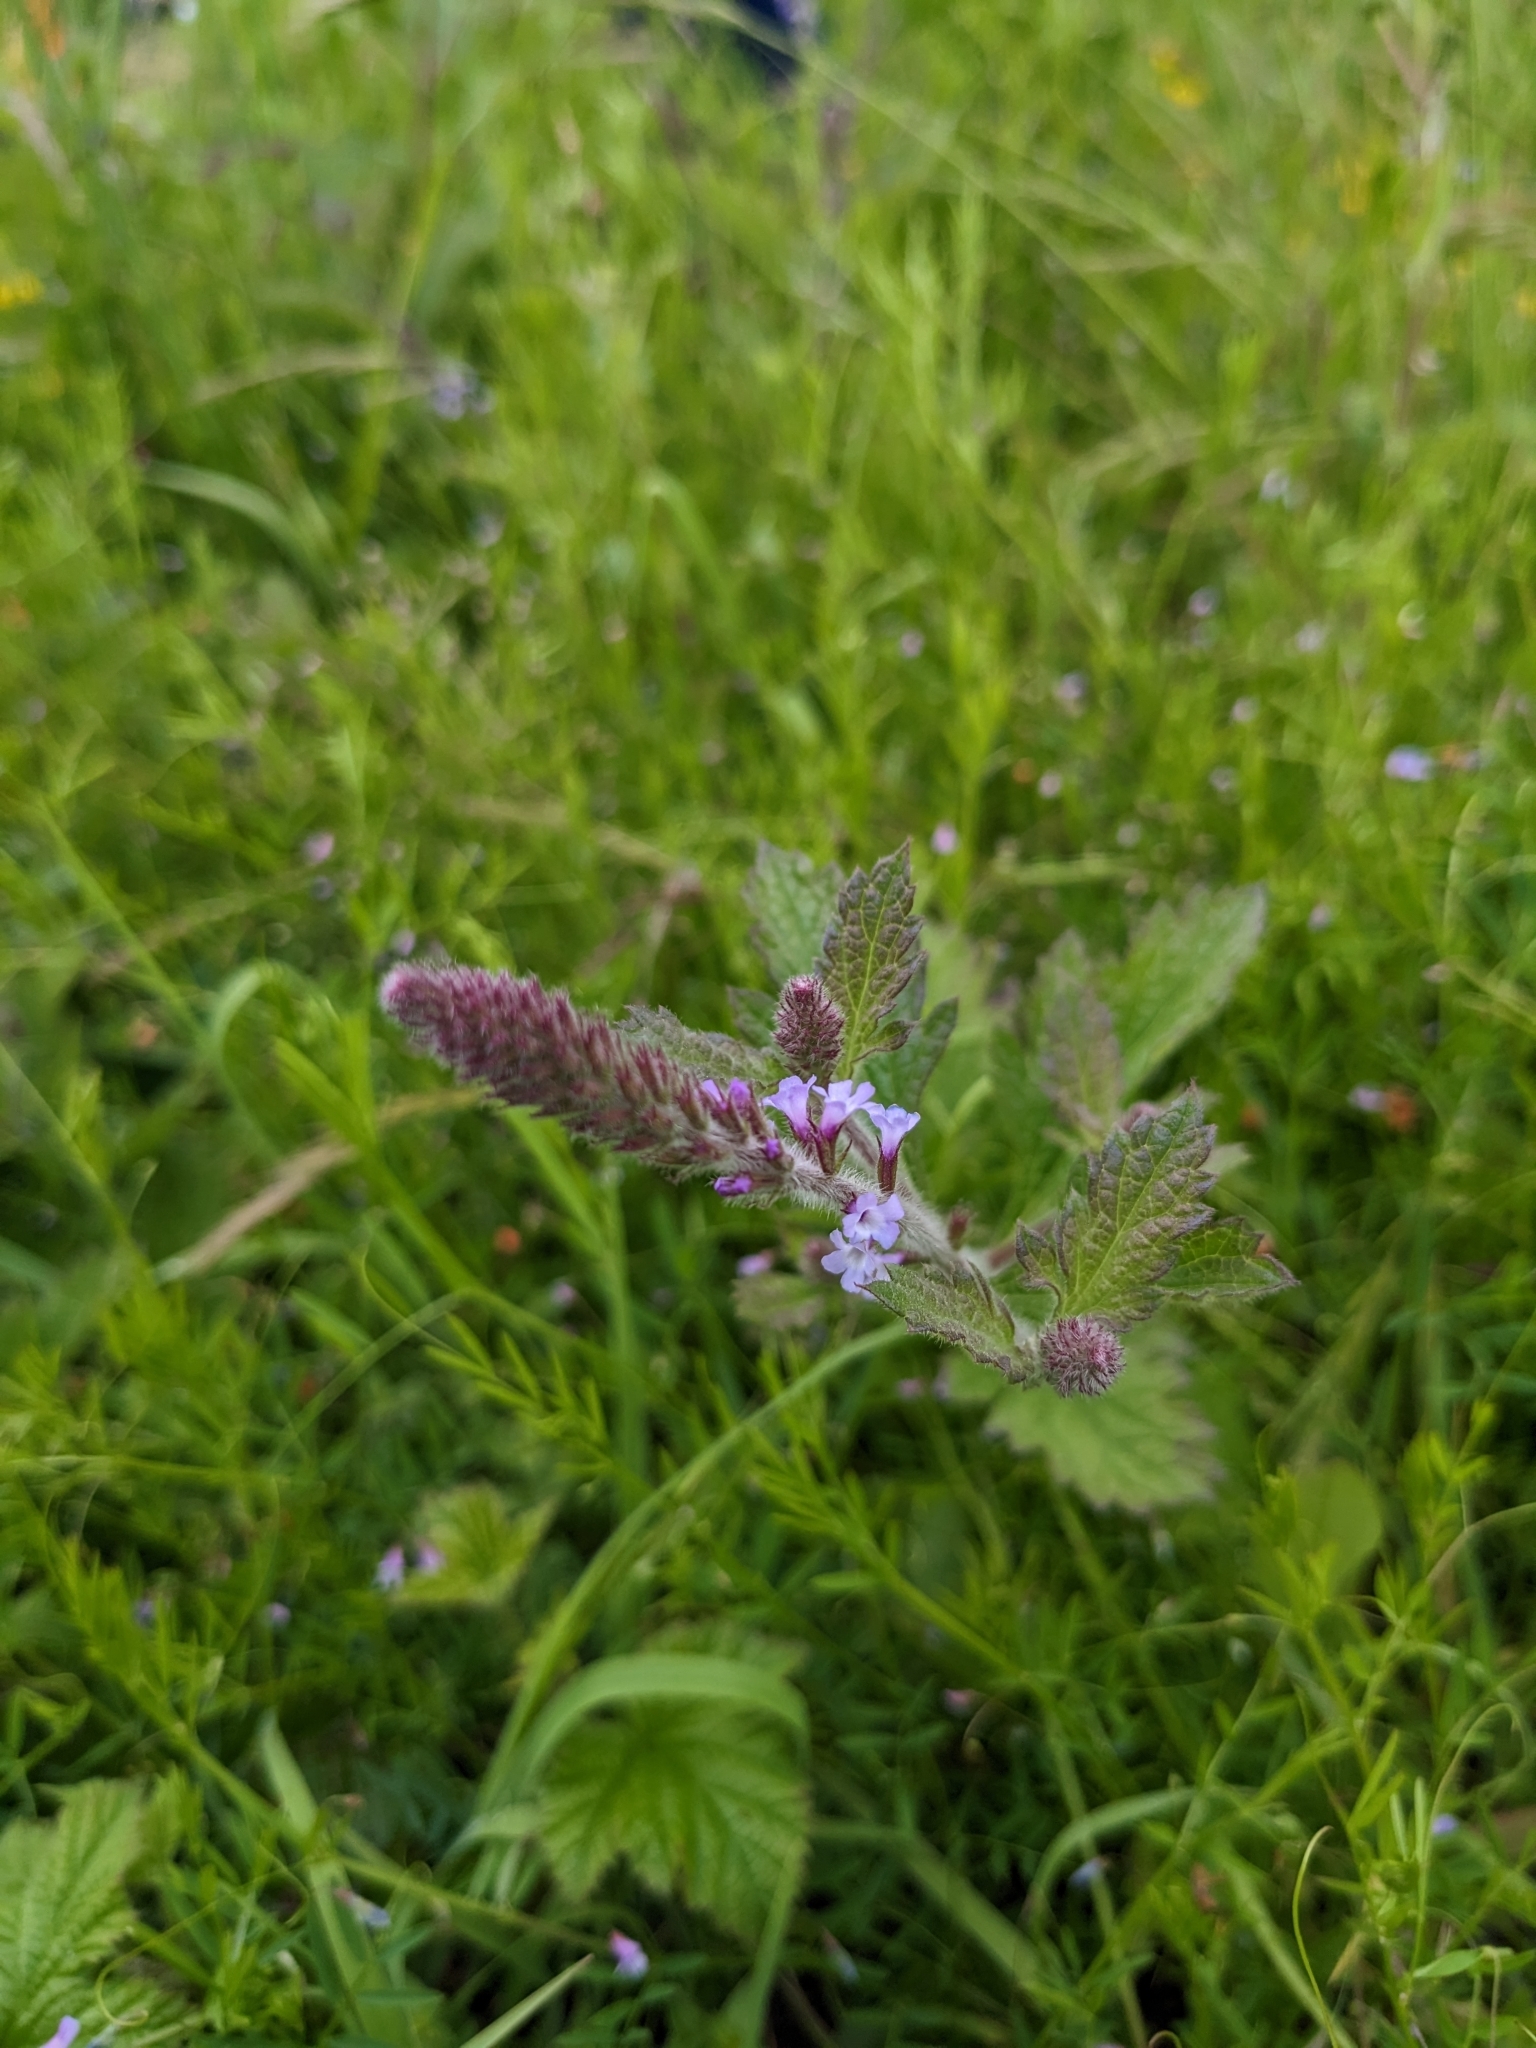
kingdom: Plantae
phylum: Tracheophyta
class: Magnoliopsida
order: Lamiales
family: Verbenaceae
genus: Verbena
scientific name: Verbena lasiostachys
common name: Vervain
